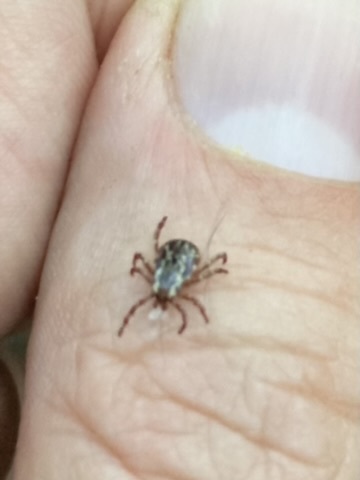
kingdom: Animalia
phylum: Arthropoda
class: Arachnida
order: Ixodida
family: Ixodidae
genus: Dermacentor
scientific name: Dermacentor variabilis
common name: American dog tick
